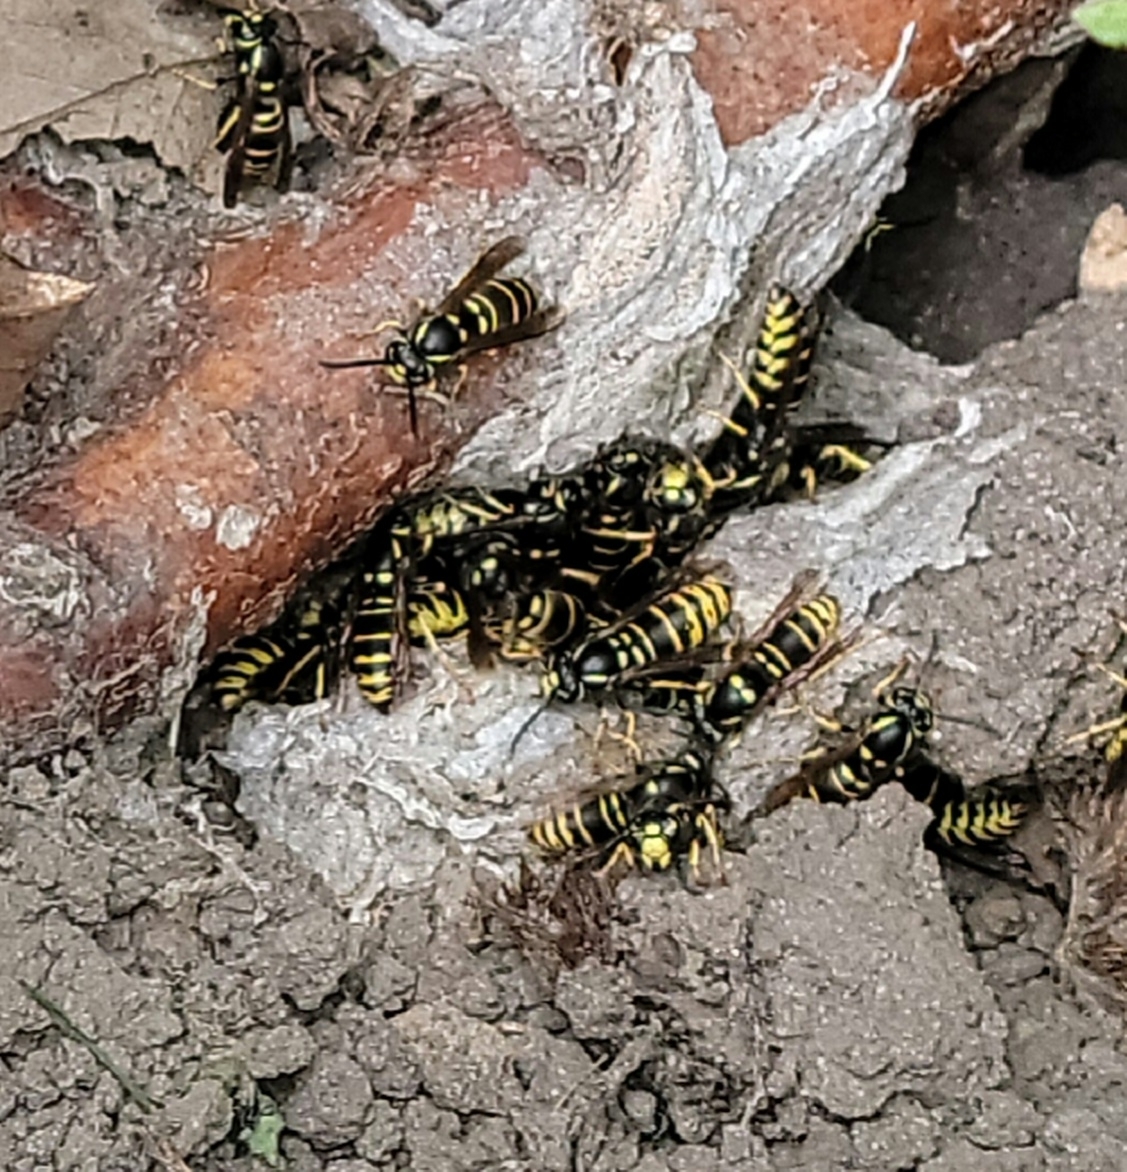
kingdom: Animalia
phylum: Arthropoda
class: Insecta
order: Hymenoptera
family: Vespidae
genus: Vespula
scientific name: Vespula vidua
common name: Widow yellowjacket
